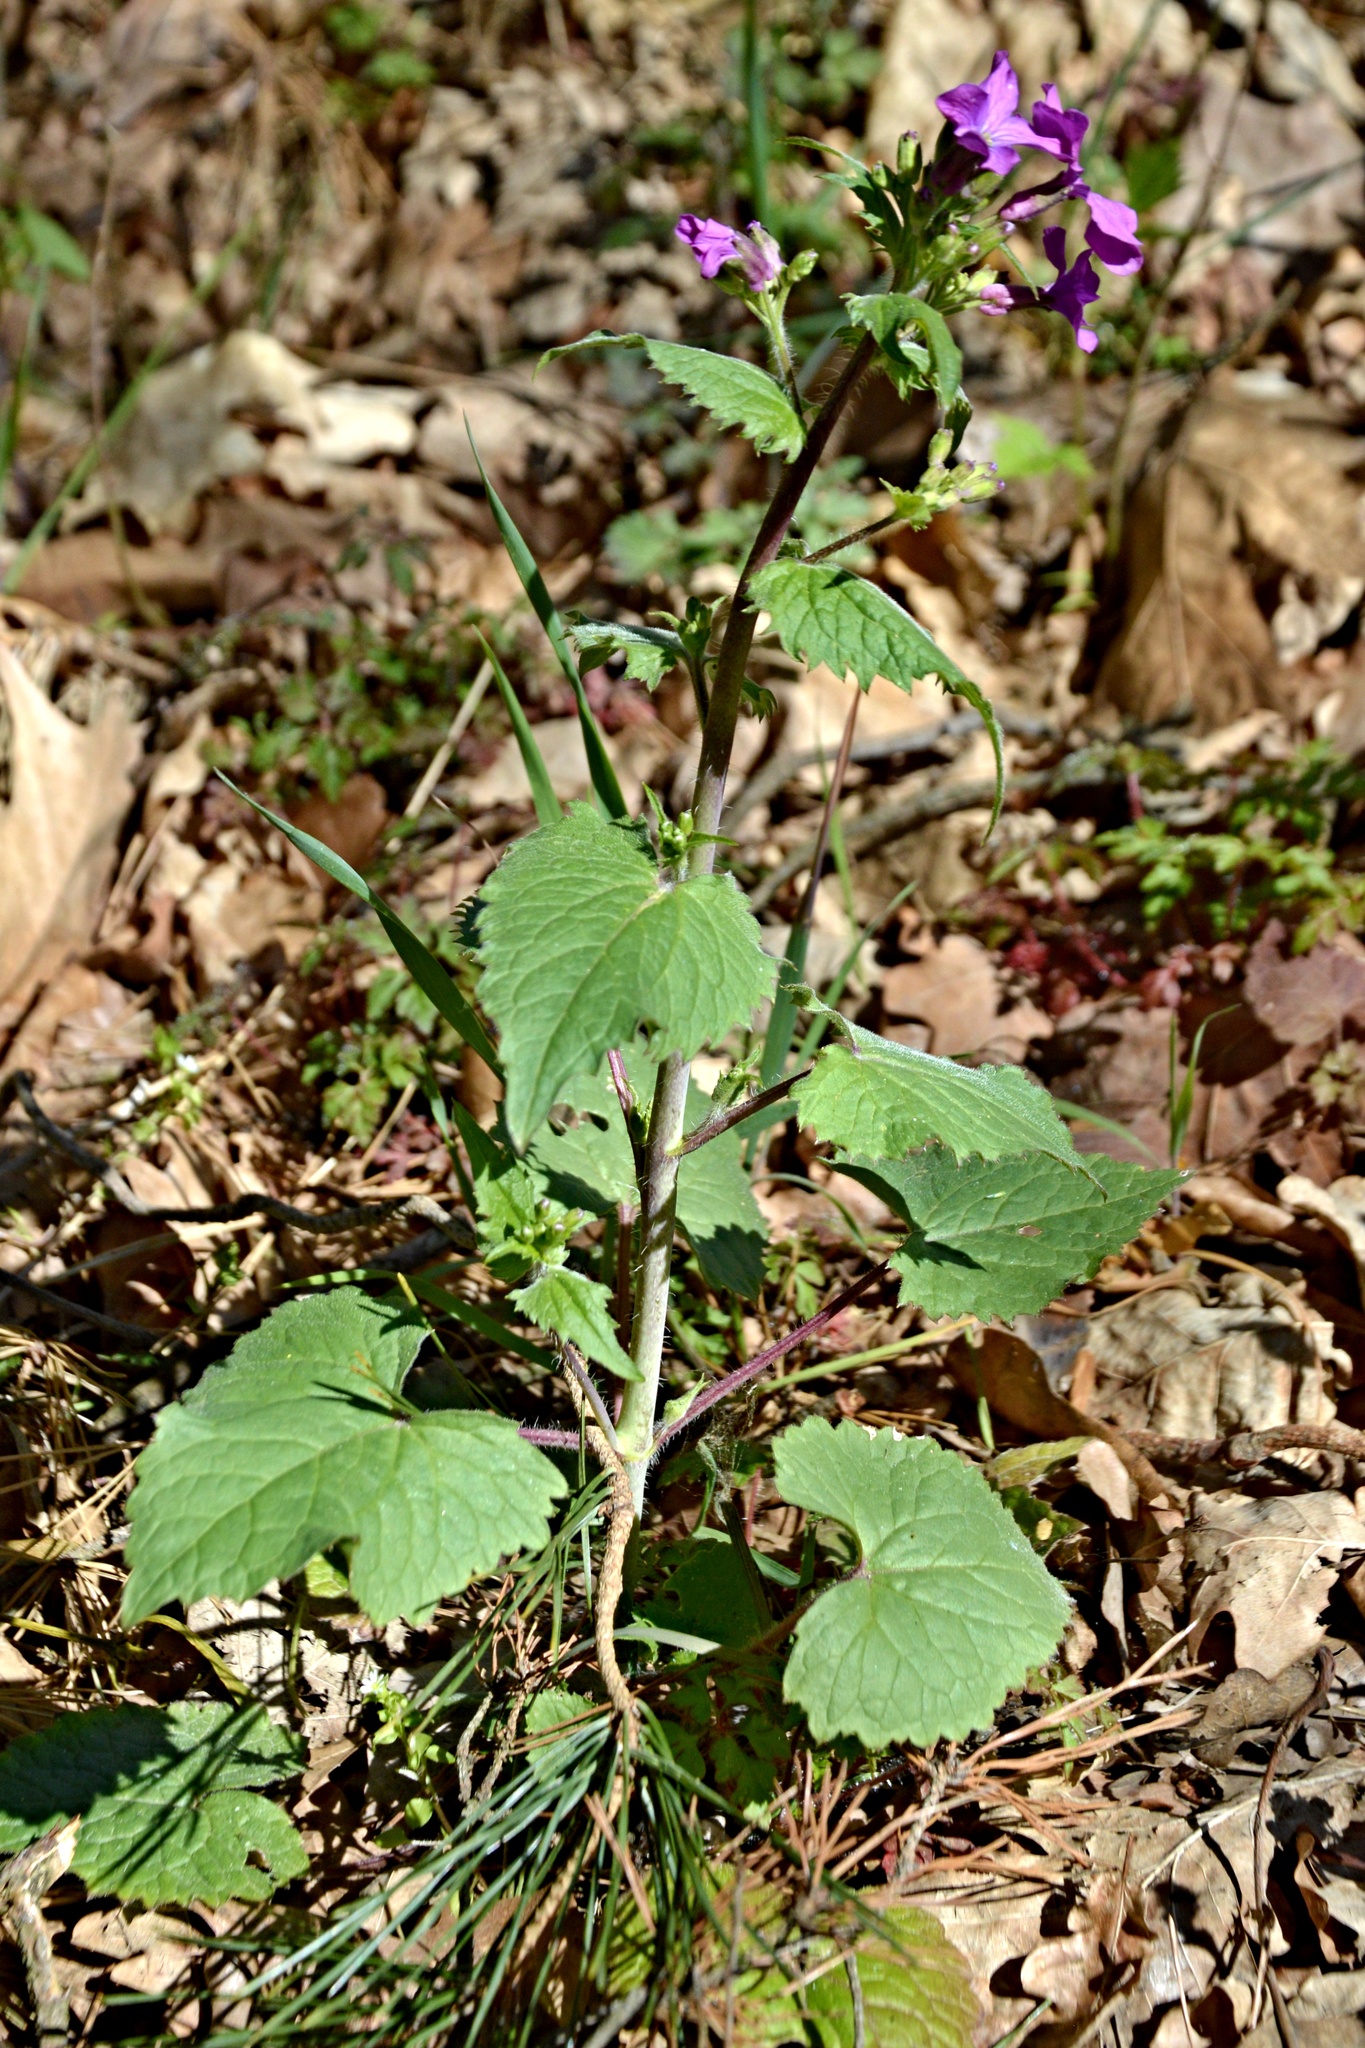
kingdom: Plantae
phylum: Tracheophyta
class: Magnoliopsida
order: Brassicales
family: Brassicaceae
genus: Lunaria
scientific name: Lunaria annua
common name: Honesty
